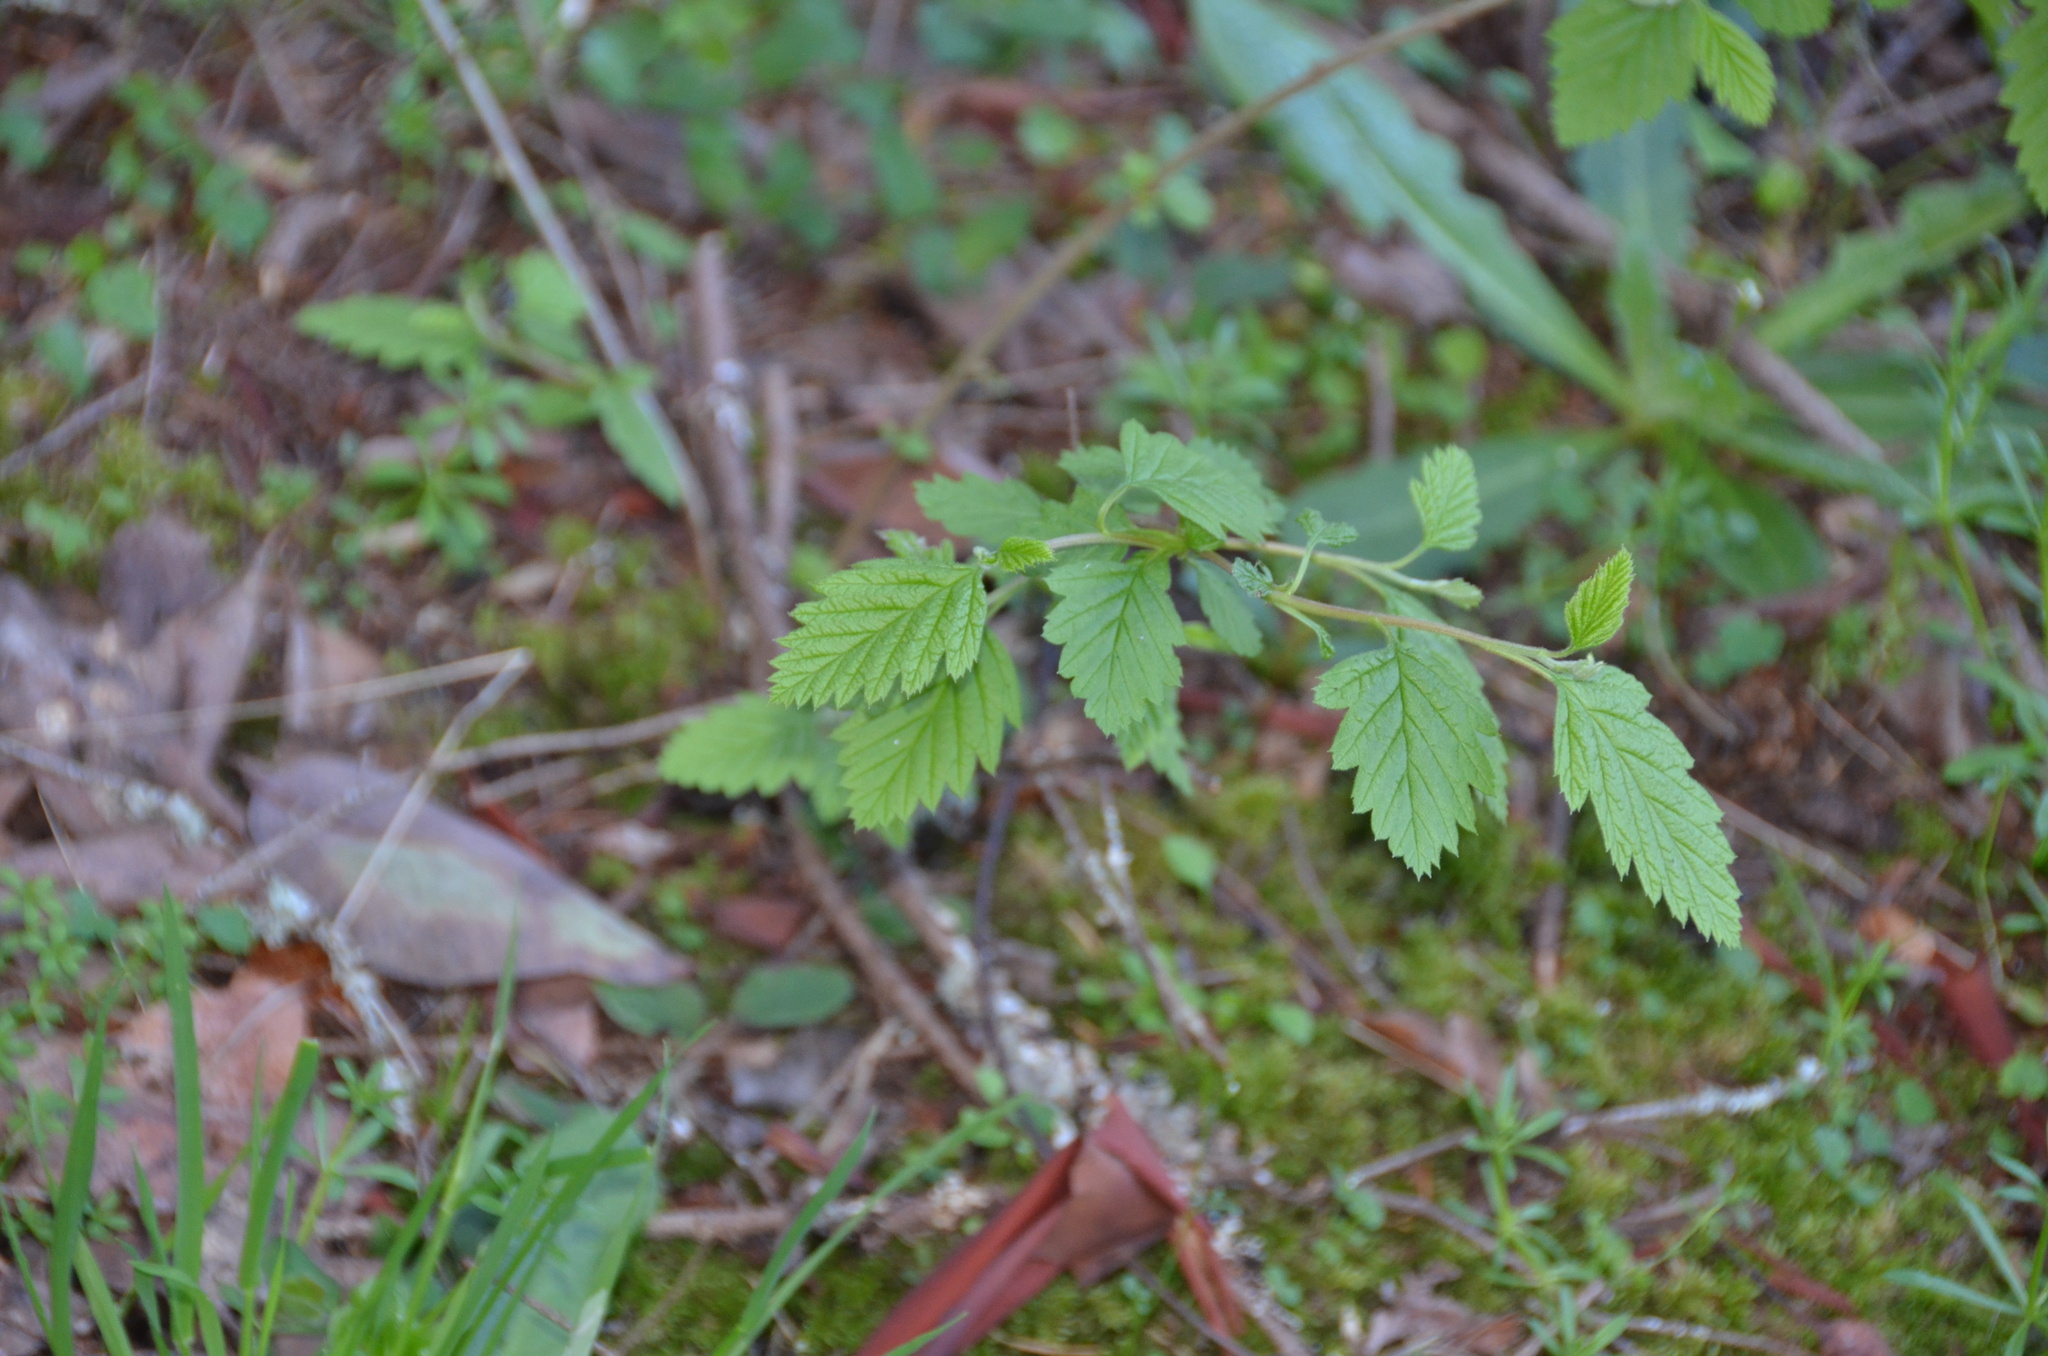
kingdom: Plantae
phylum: Tracheophyta
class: Magnoliopsida
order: Rosales
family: Rosaceae
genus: Holodiscus
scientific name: Holodiscus discolor
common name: Oceanspray
